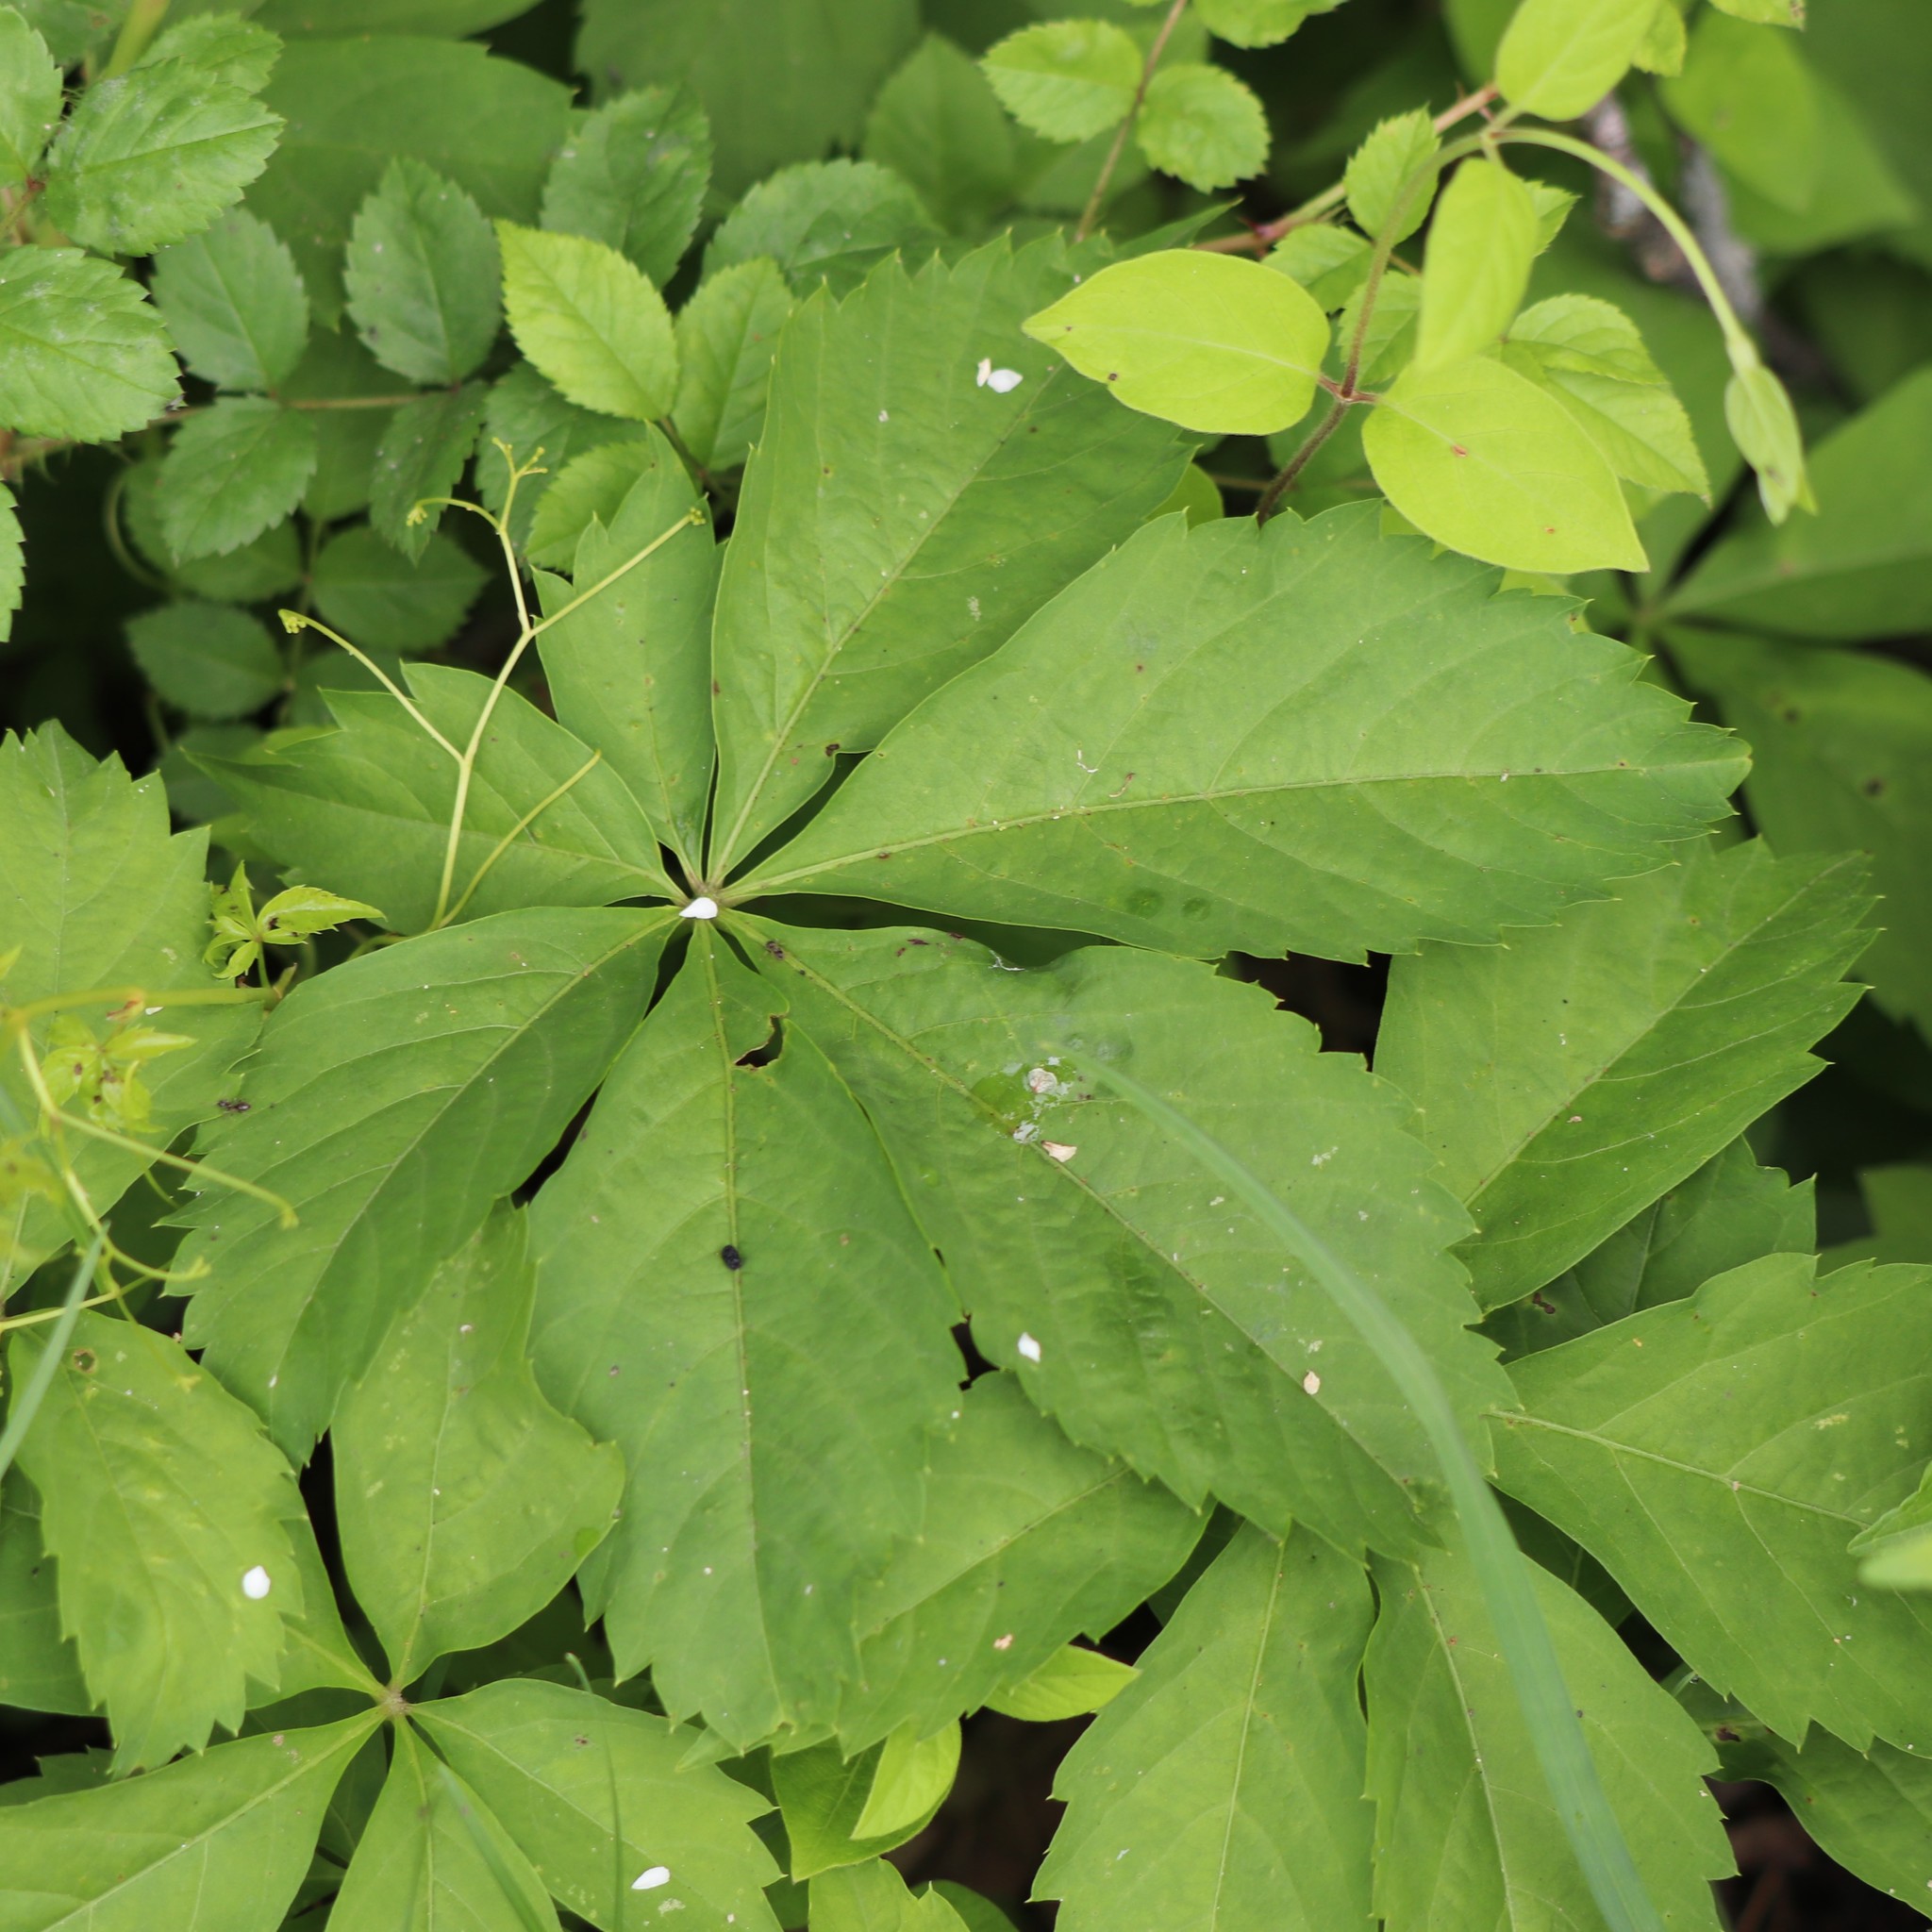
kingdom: Plantae
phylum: Tracheophyta
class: Magnoliopsida
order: Vitales
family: Vitaceae
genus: Parthenocissus
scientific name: Parthenocissus quinquefolia
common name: Virginia-creeper
